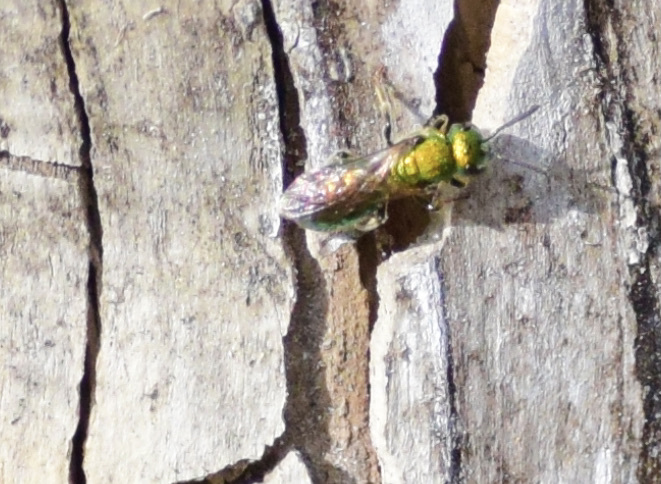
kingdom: Animalia
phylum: Arthropoda
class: Insecta
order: Hymenoptera
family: Halictidae
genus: Augochlora
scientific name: Augochlora pura
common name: Pure green sweat bee
